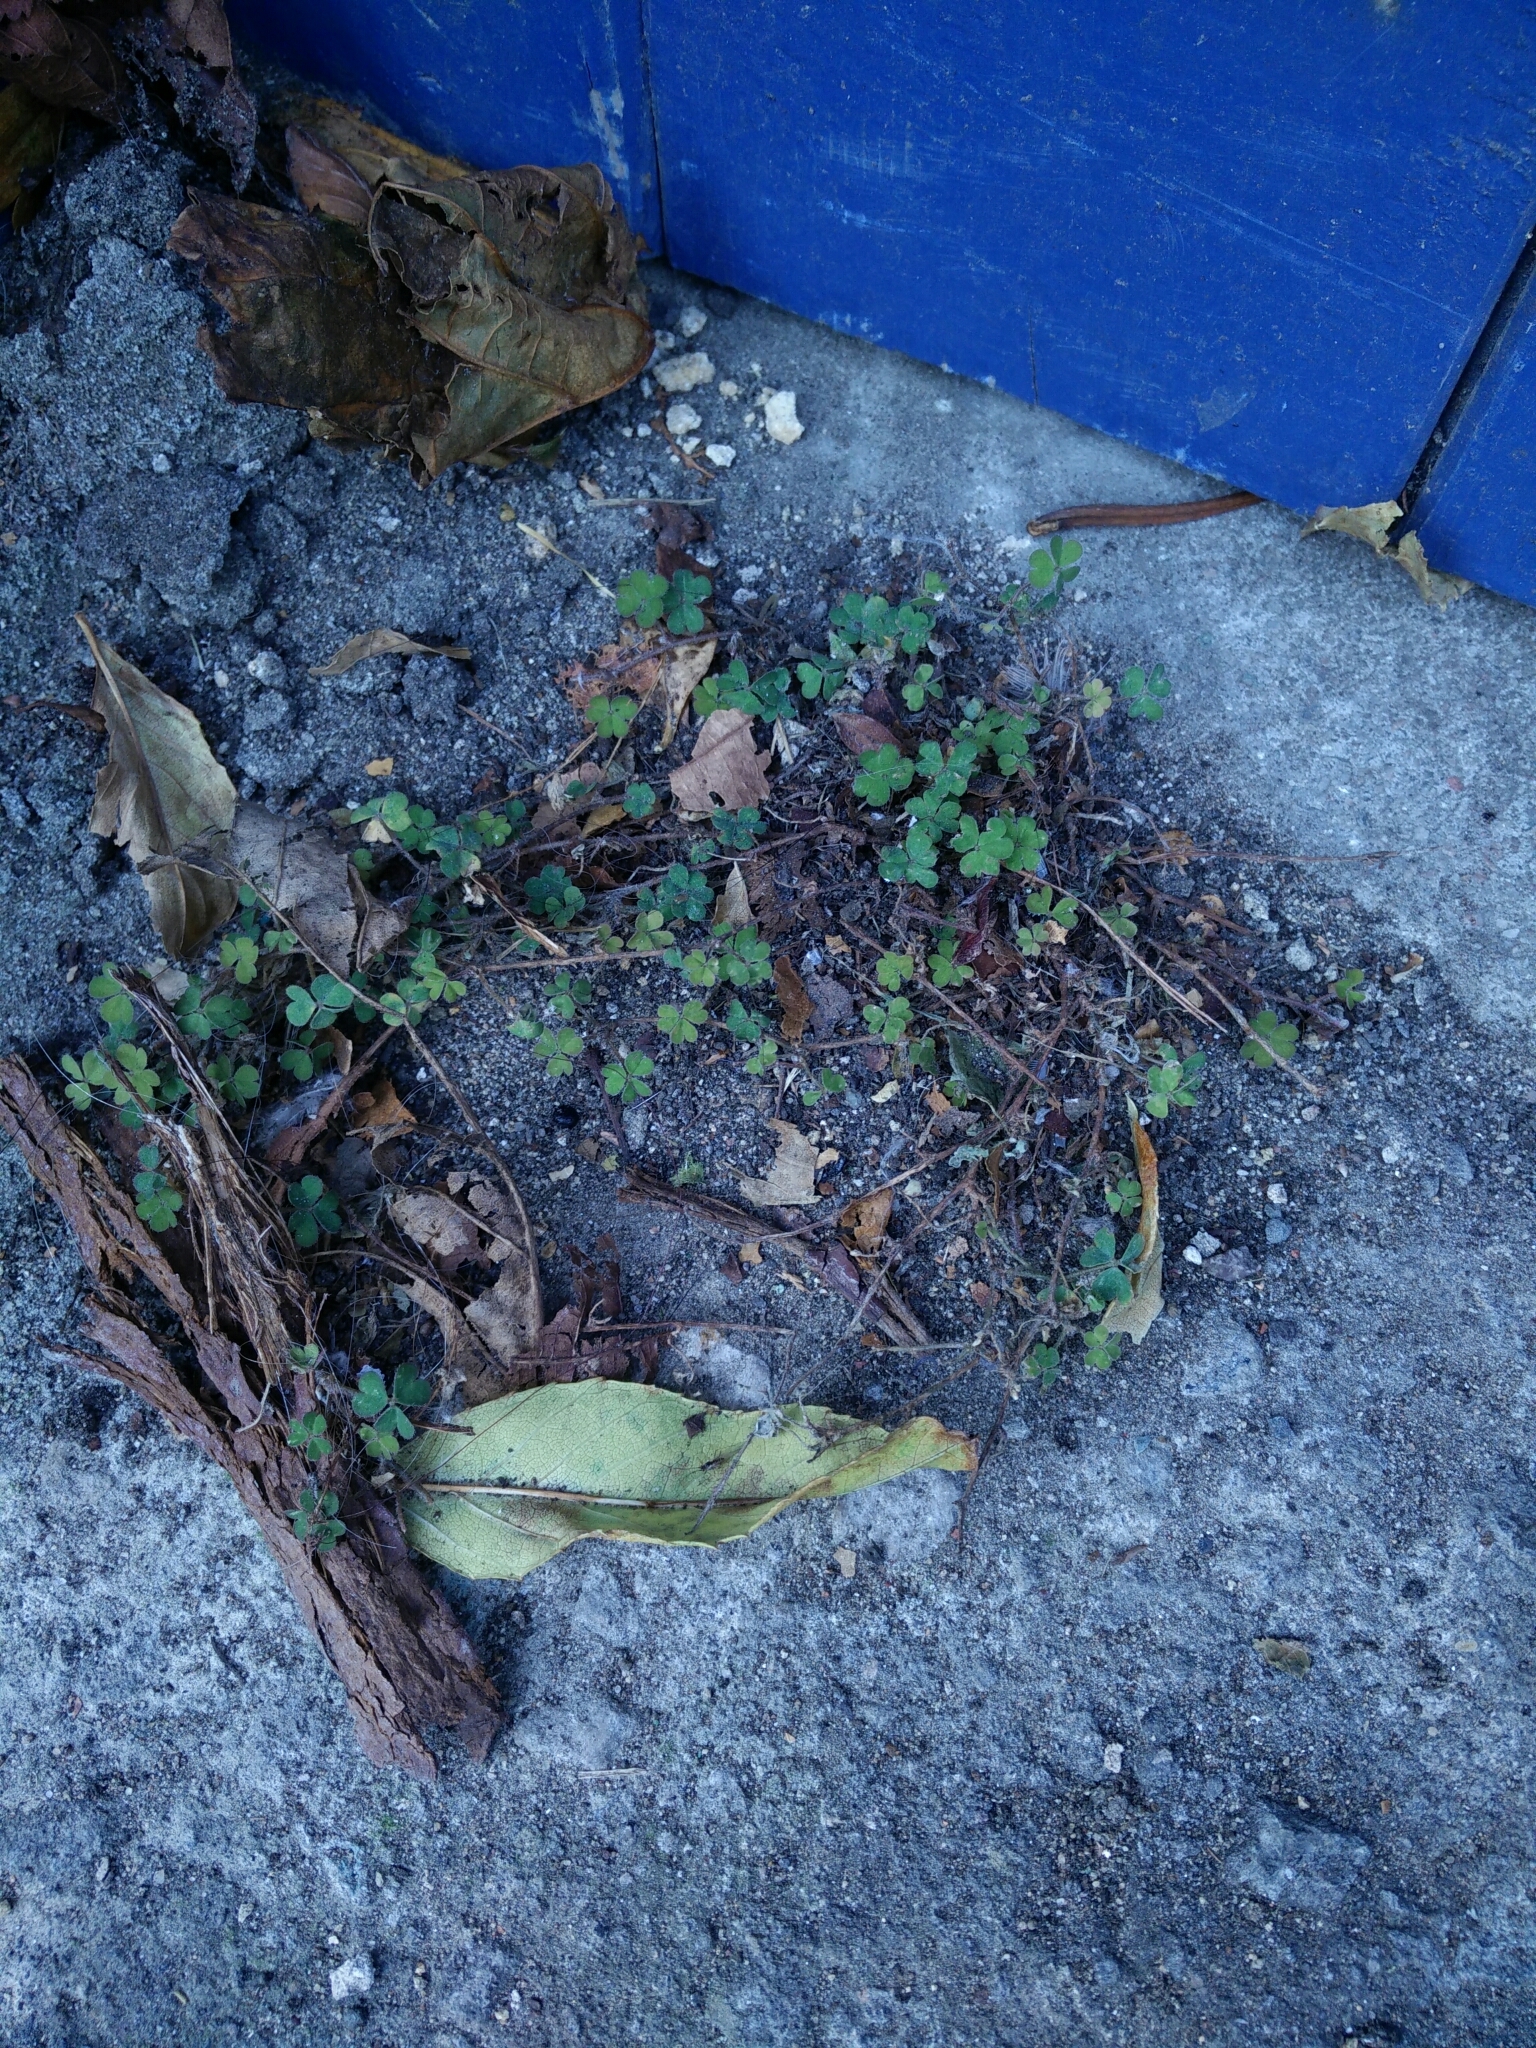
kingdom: Plantae
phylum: Tracheophyta
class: Magnoliopsida
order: Oxalidales
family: Oxalidaceae
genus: Oxalis
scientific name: Oxalis exilis
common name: Least yellow-sorrel
